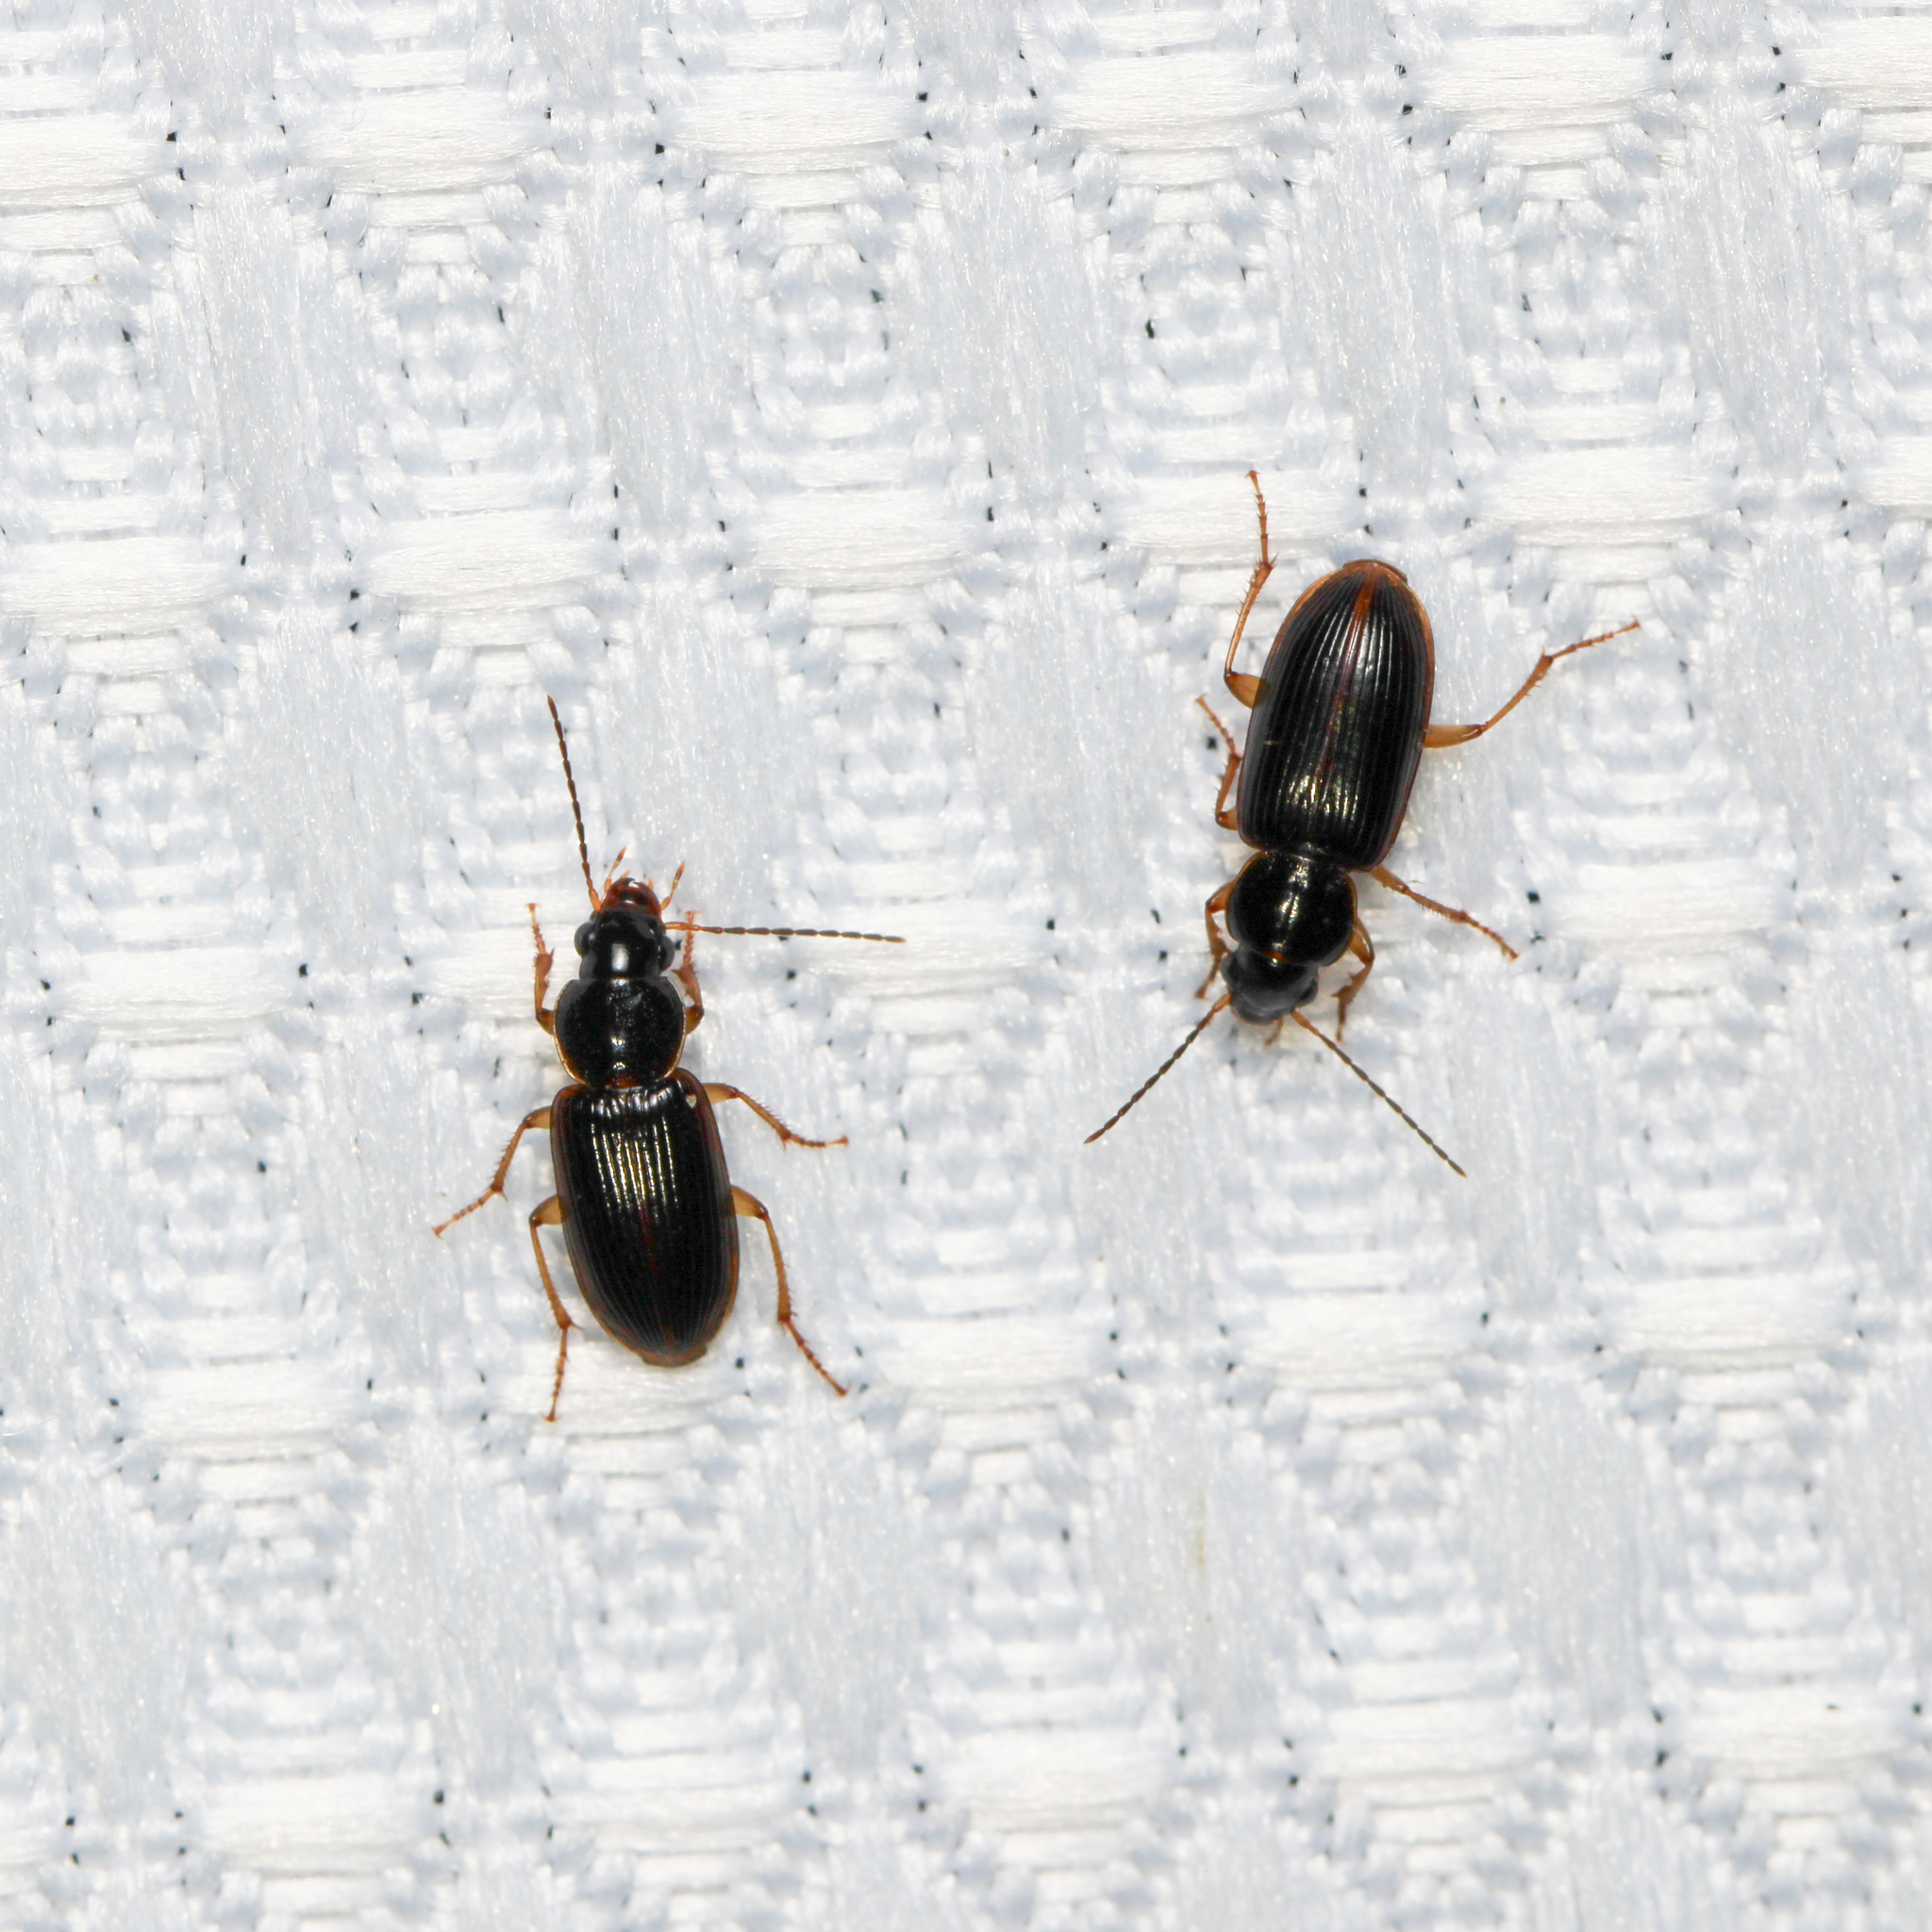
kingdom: Animalia
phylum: Arthropoda
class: Insecta
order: Coleoptera
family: Carabidae
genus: Stenolophus
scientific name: Stenolophus ochropezus
